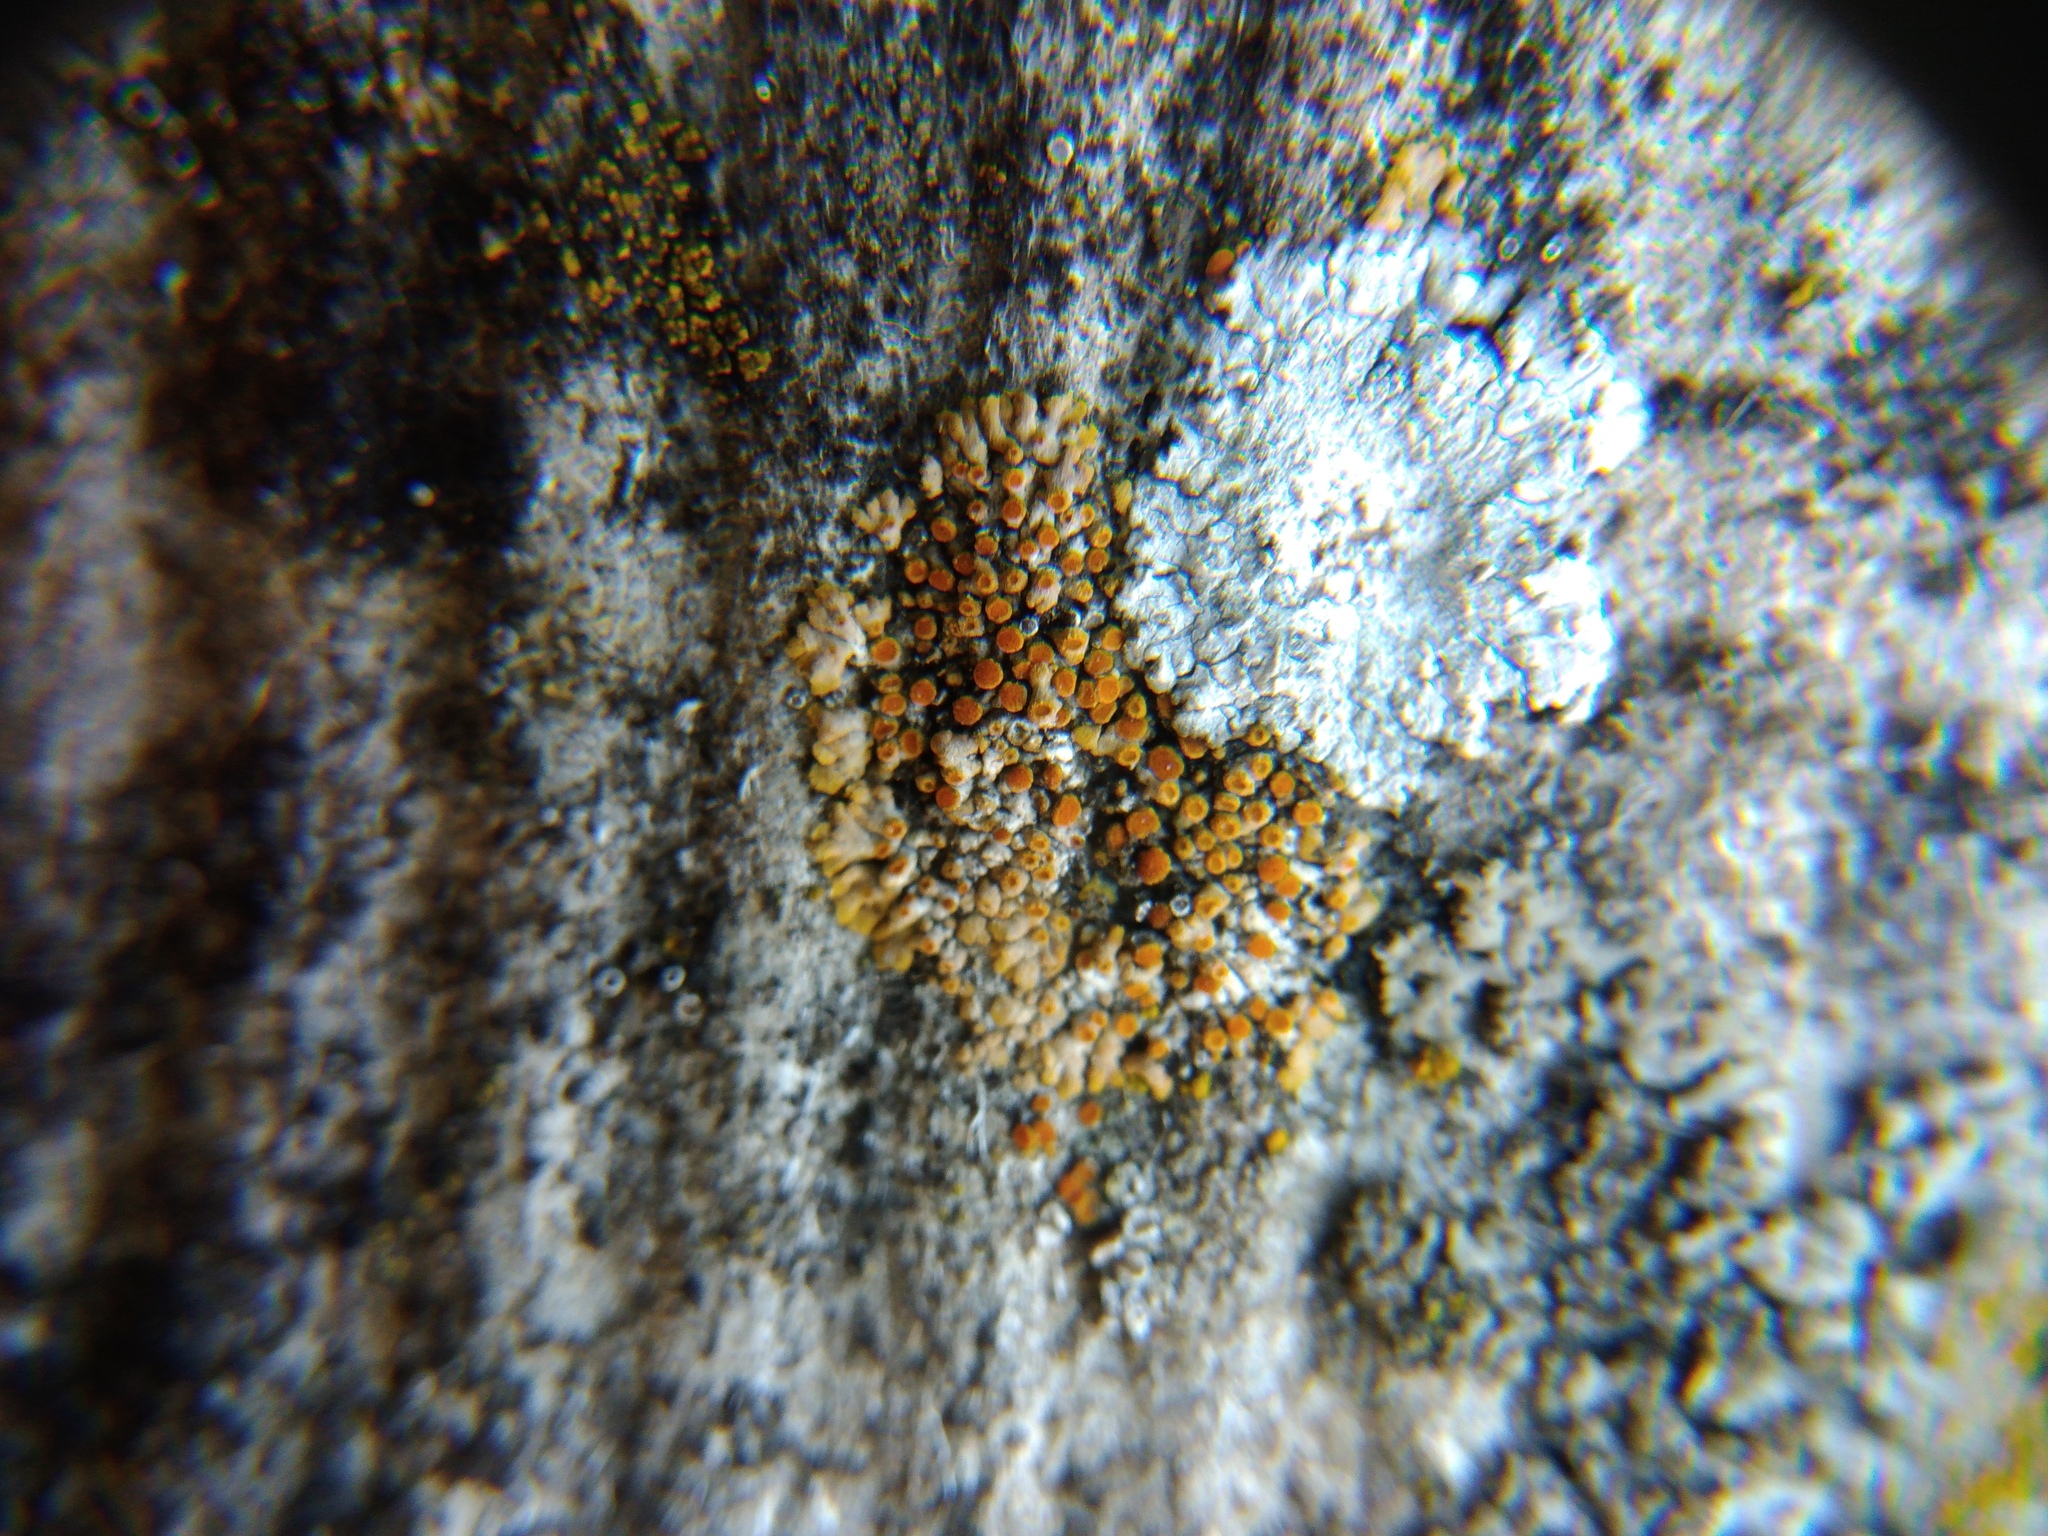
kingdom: Fungi
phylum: Ascomycota
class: Lecanoromycetes
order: Teloschistales
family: Teloschistaceae
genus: Calogaya
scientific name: Calogaya pusilla
